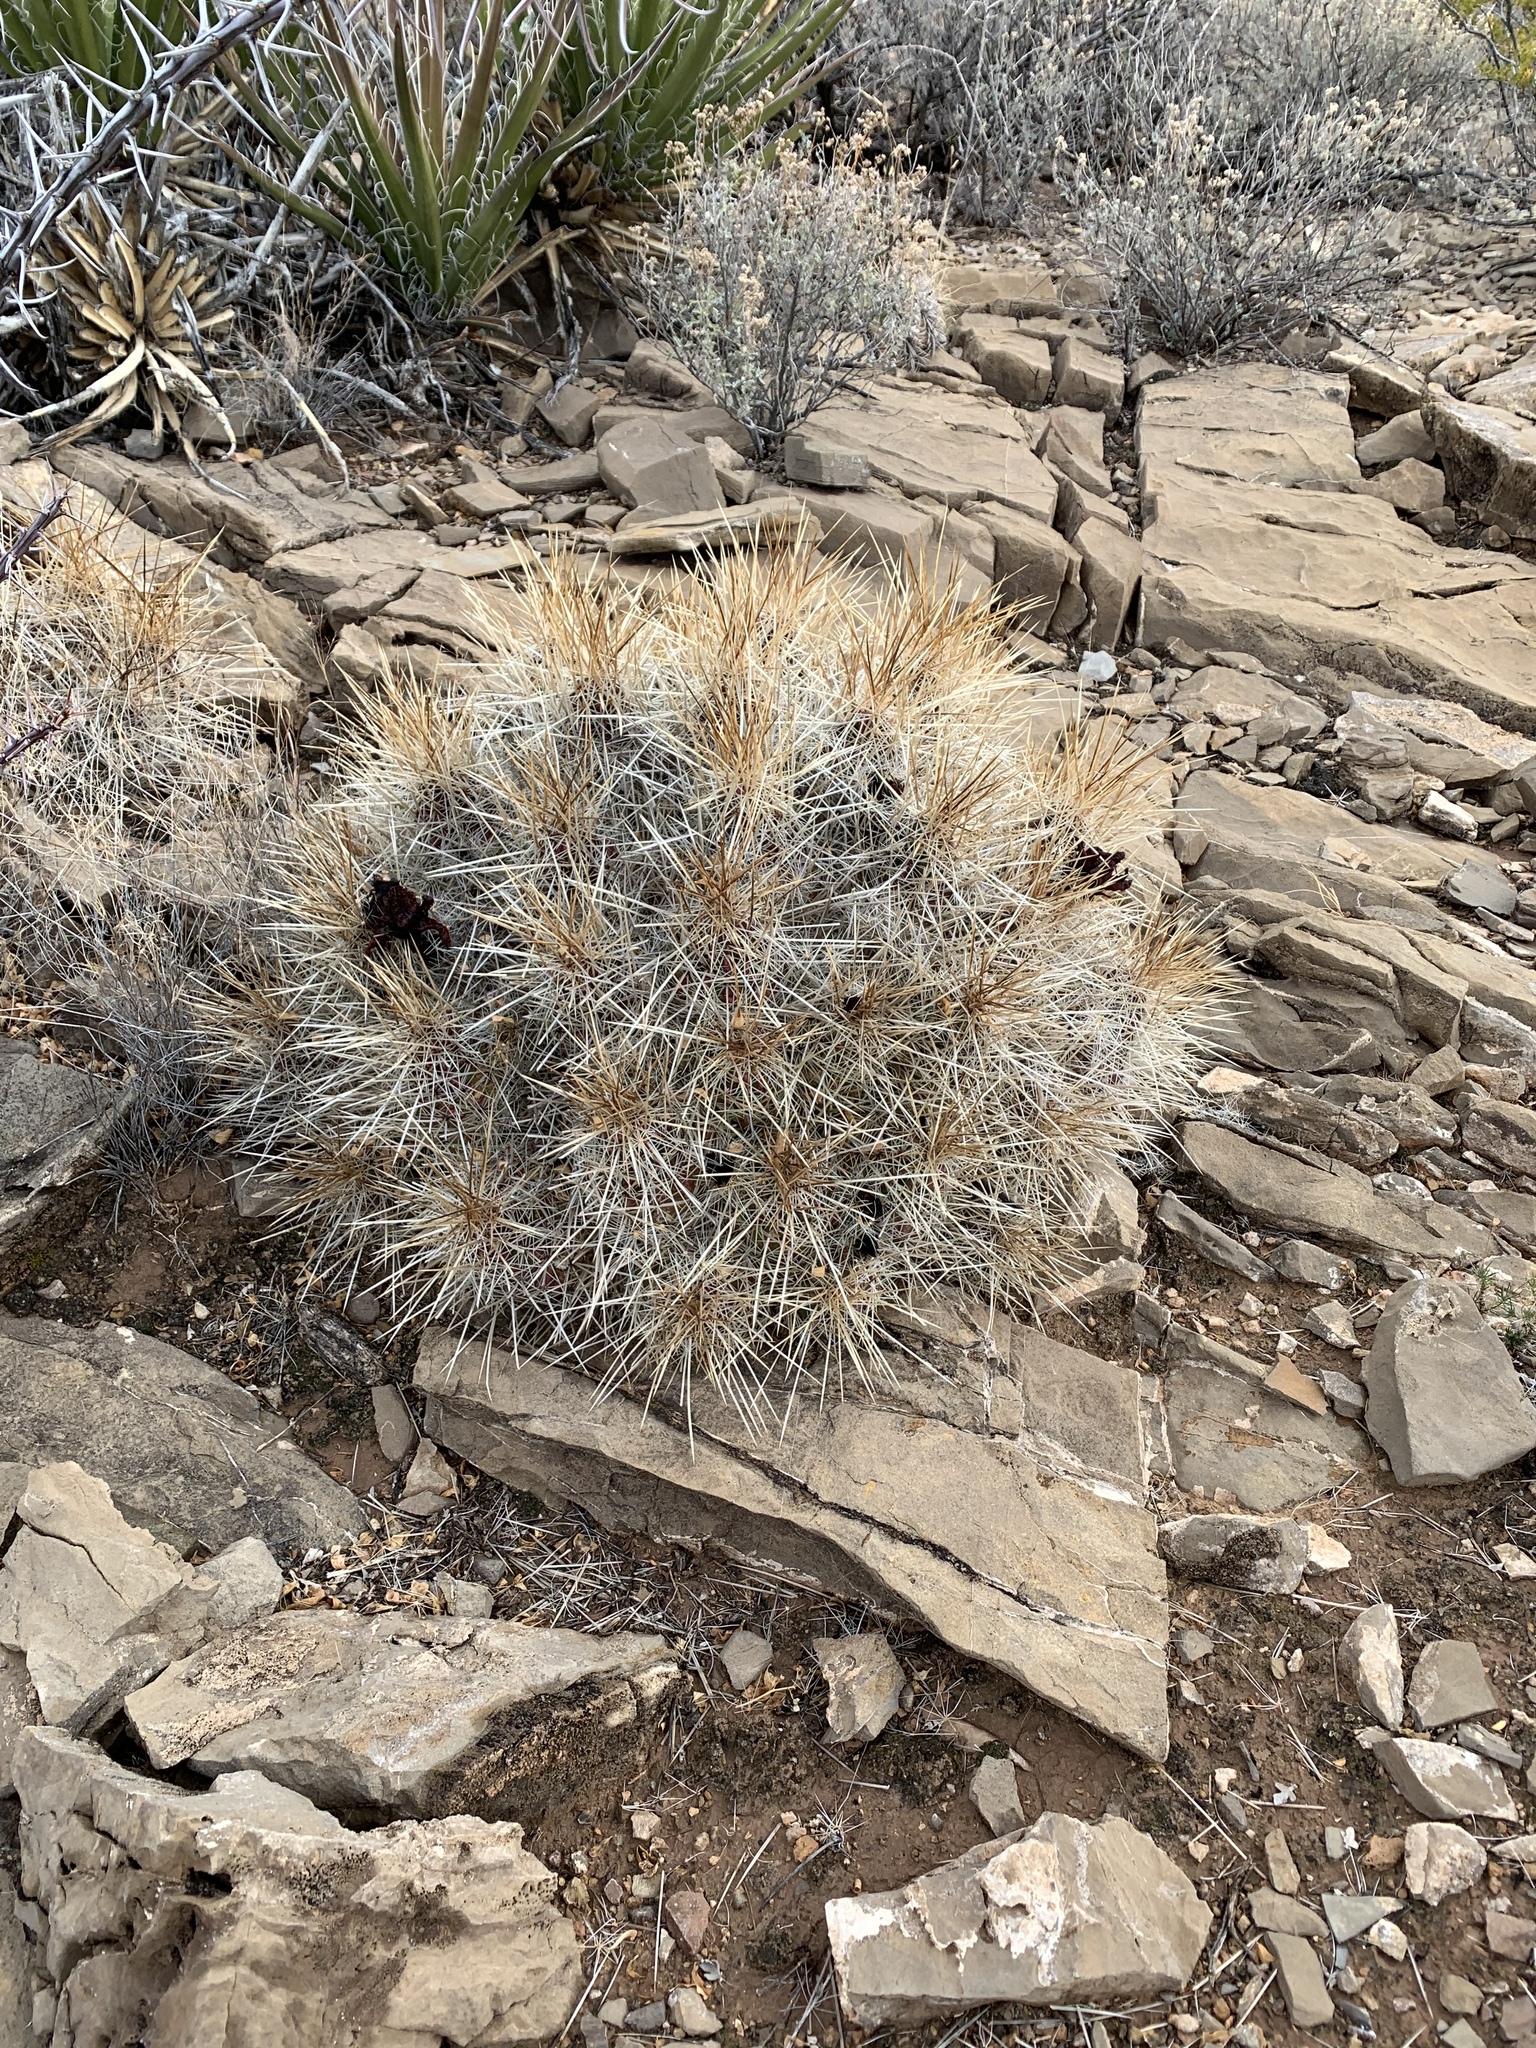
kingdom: Plantae
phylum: Tracheophyta
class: Magnoliopsida
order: Caryophyllales
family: Cactaceae
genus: Echinocereus
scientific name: Echinocereus stramineus
